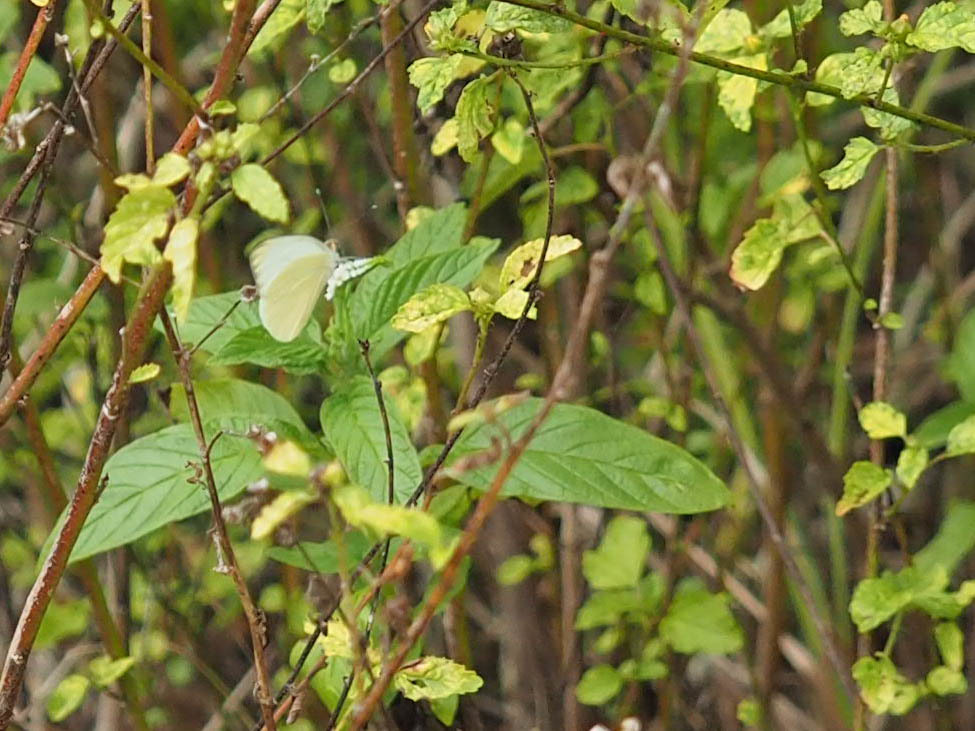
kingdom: Animalia
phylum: Arthropoda
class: Insecta
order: Lepidoptera
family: Pieridae
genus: Ascia
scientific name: Ascia monuste
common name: Great southern white
